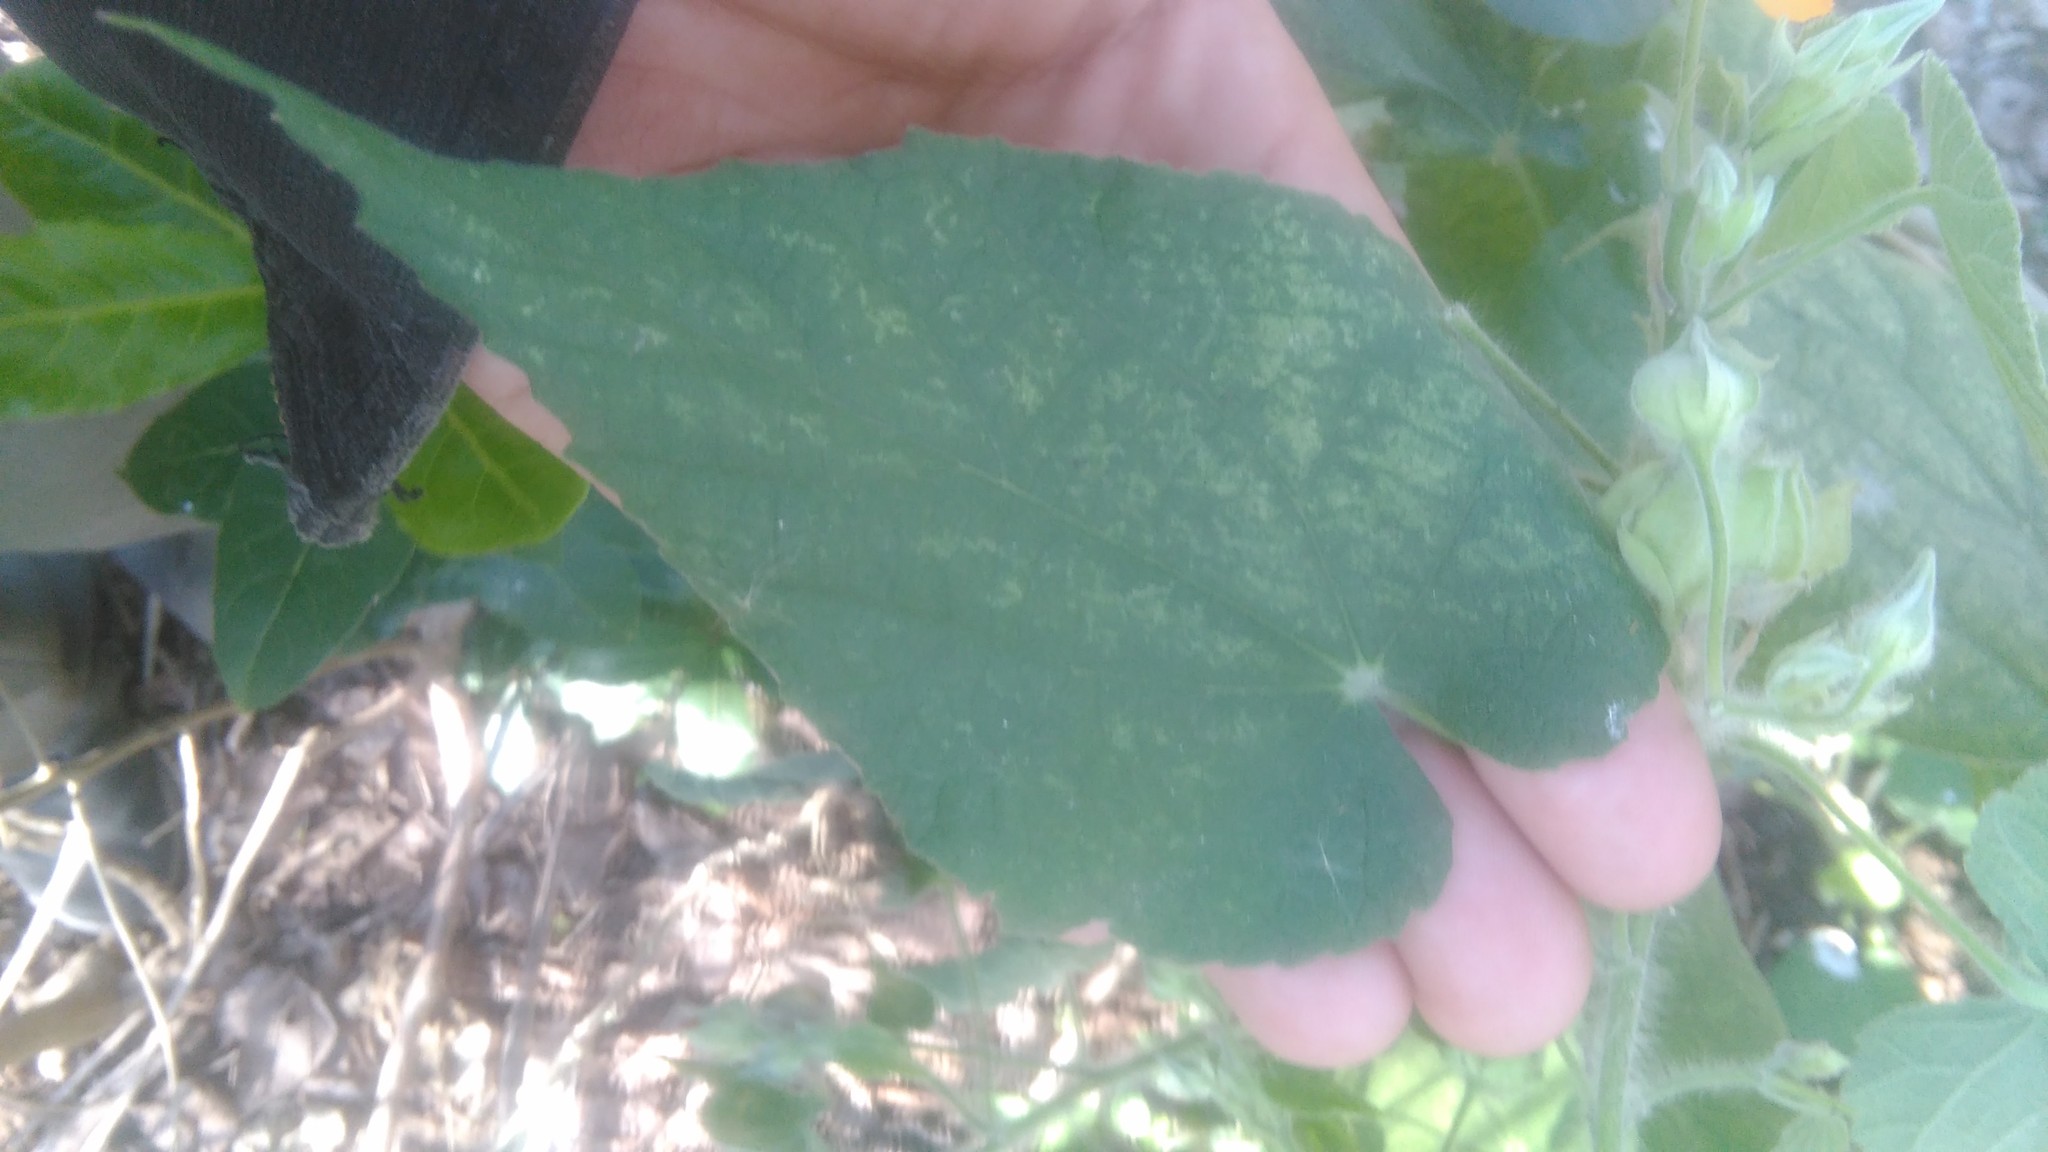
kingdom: Plantae
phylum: Tracheophyta
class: Magnoliopsida
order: Malvales
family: Malvaceae
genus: Abutilon
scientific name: Abutilon grandifolium
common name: Hairy abutilon
